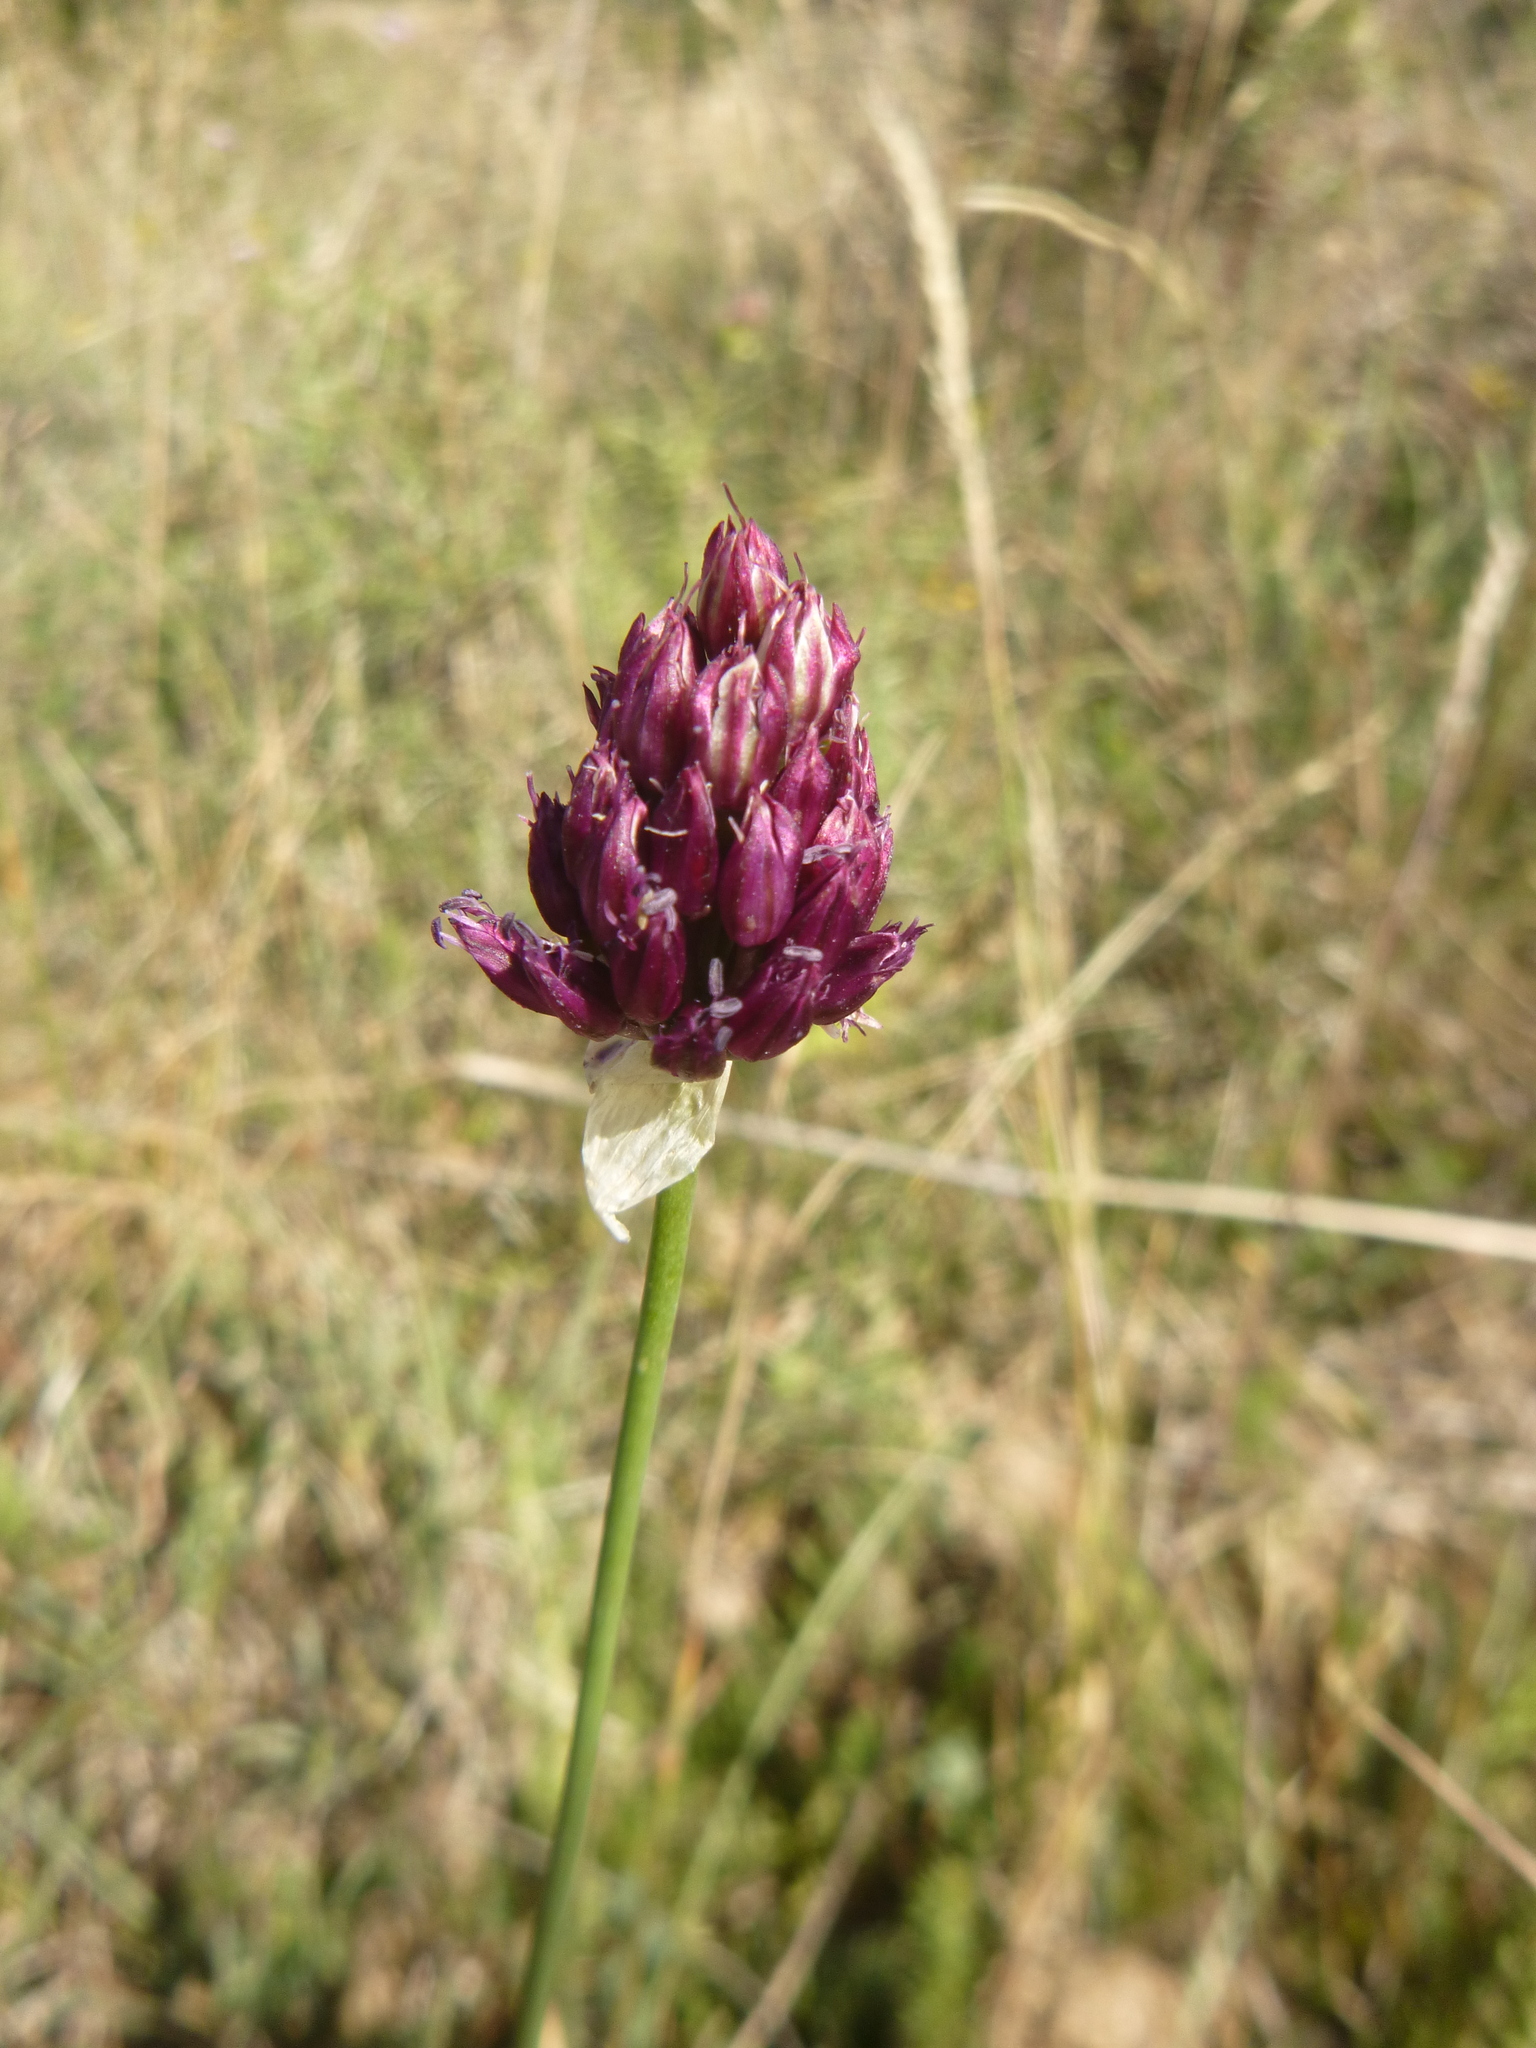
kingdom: Plantae
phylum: Tracheophyta
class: Liliopsida
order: Asparagales
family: Amaryllidaceae
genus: Allium
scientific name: Allium sphaerocephalon
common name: Round-headed leek
